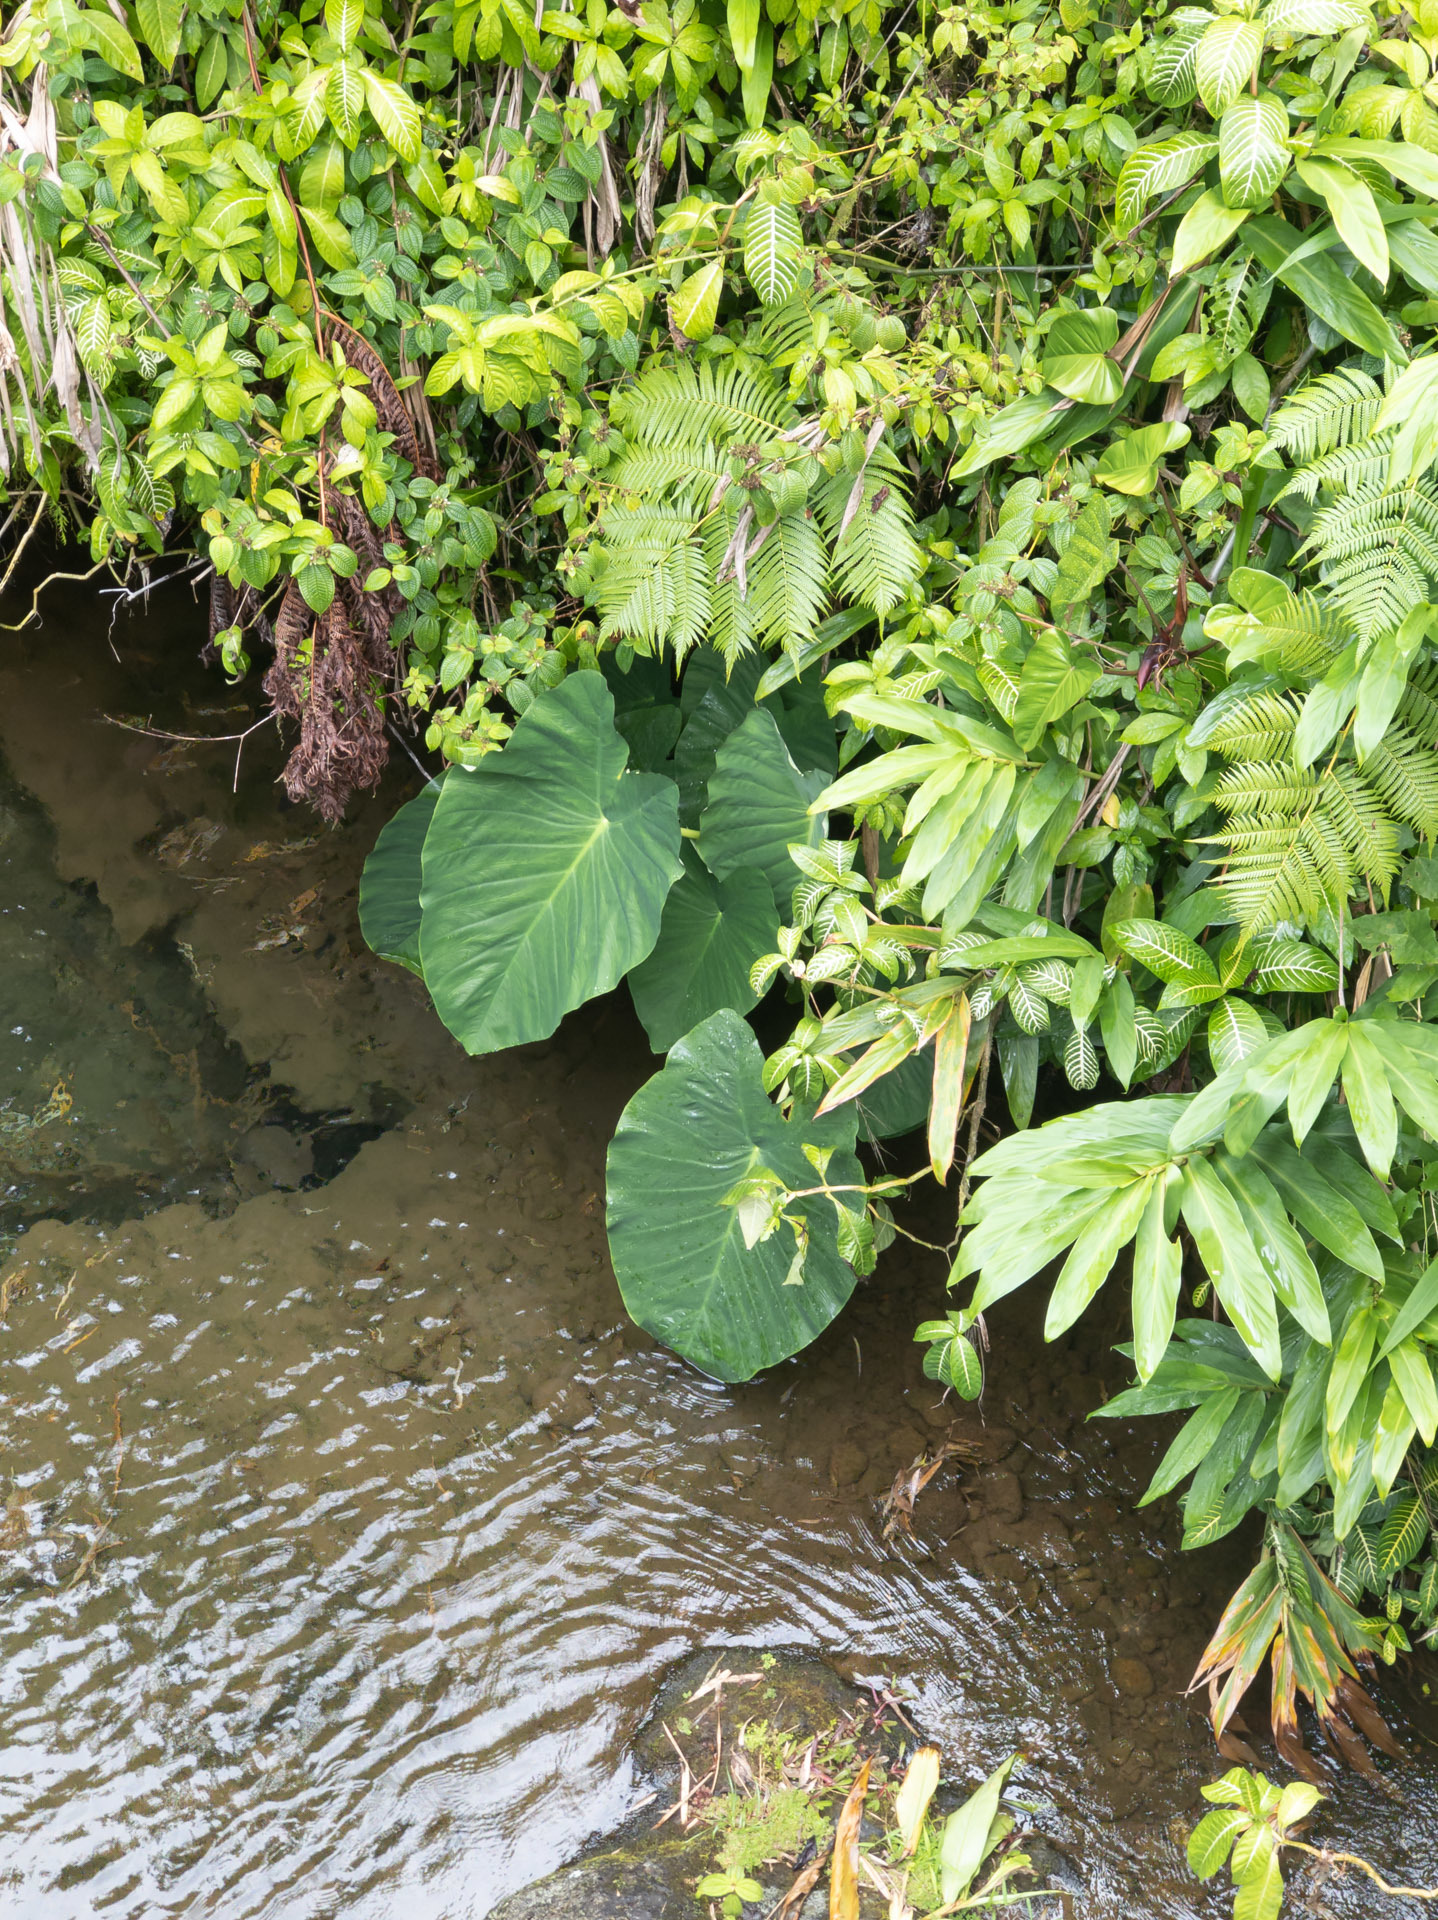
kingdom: Plantae
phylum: Tracheophyta
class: Liliopsida
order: Alismatales
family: Araceae
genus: Xanthosoma
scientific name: Xanthosoma robustum
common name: Capote
